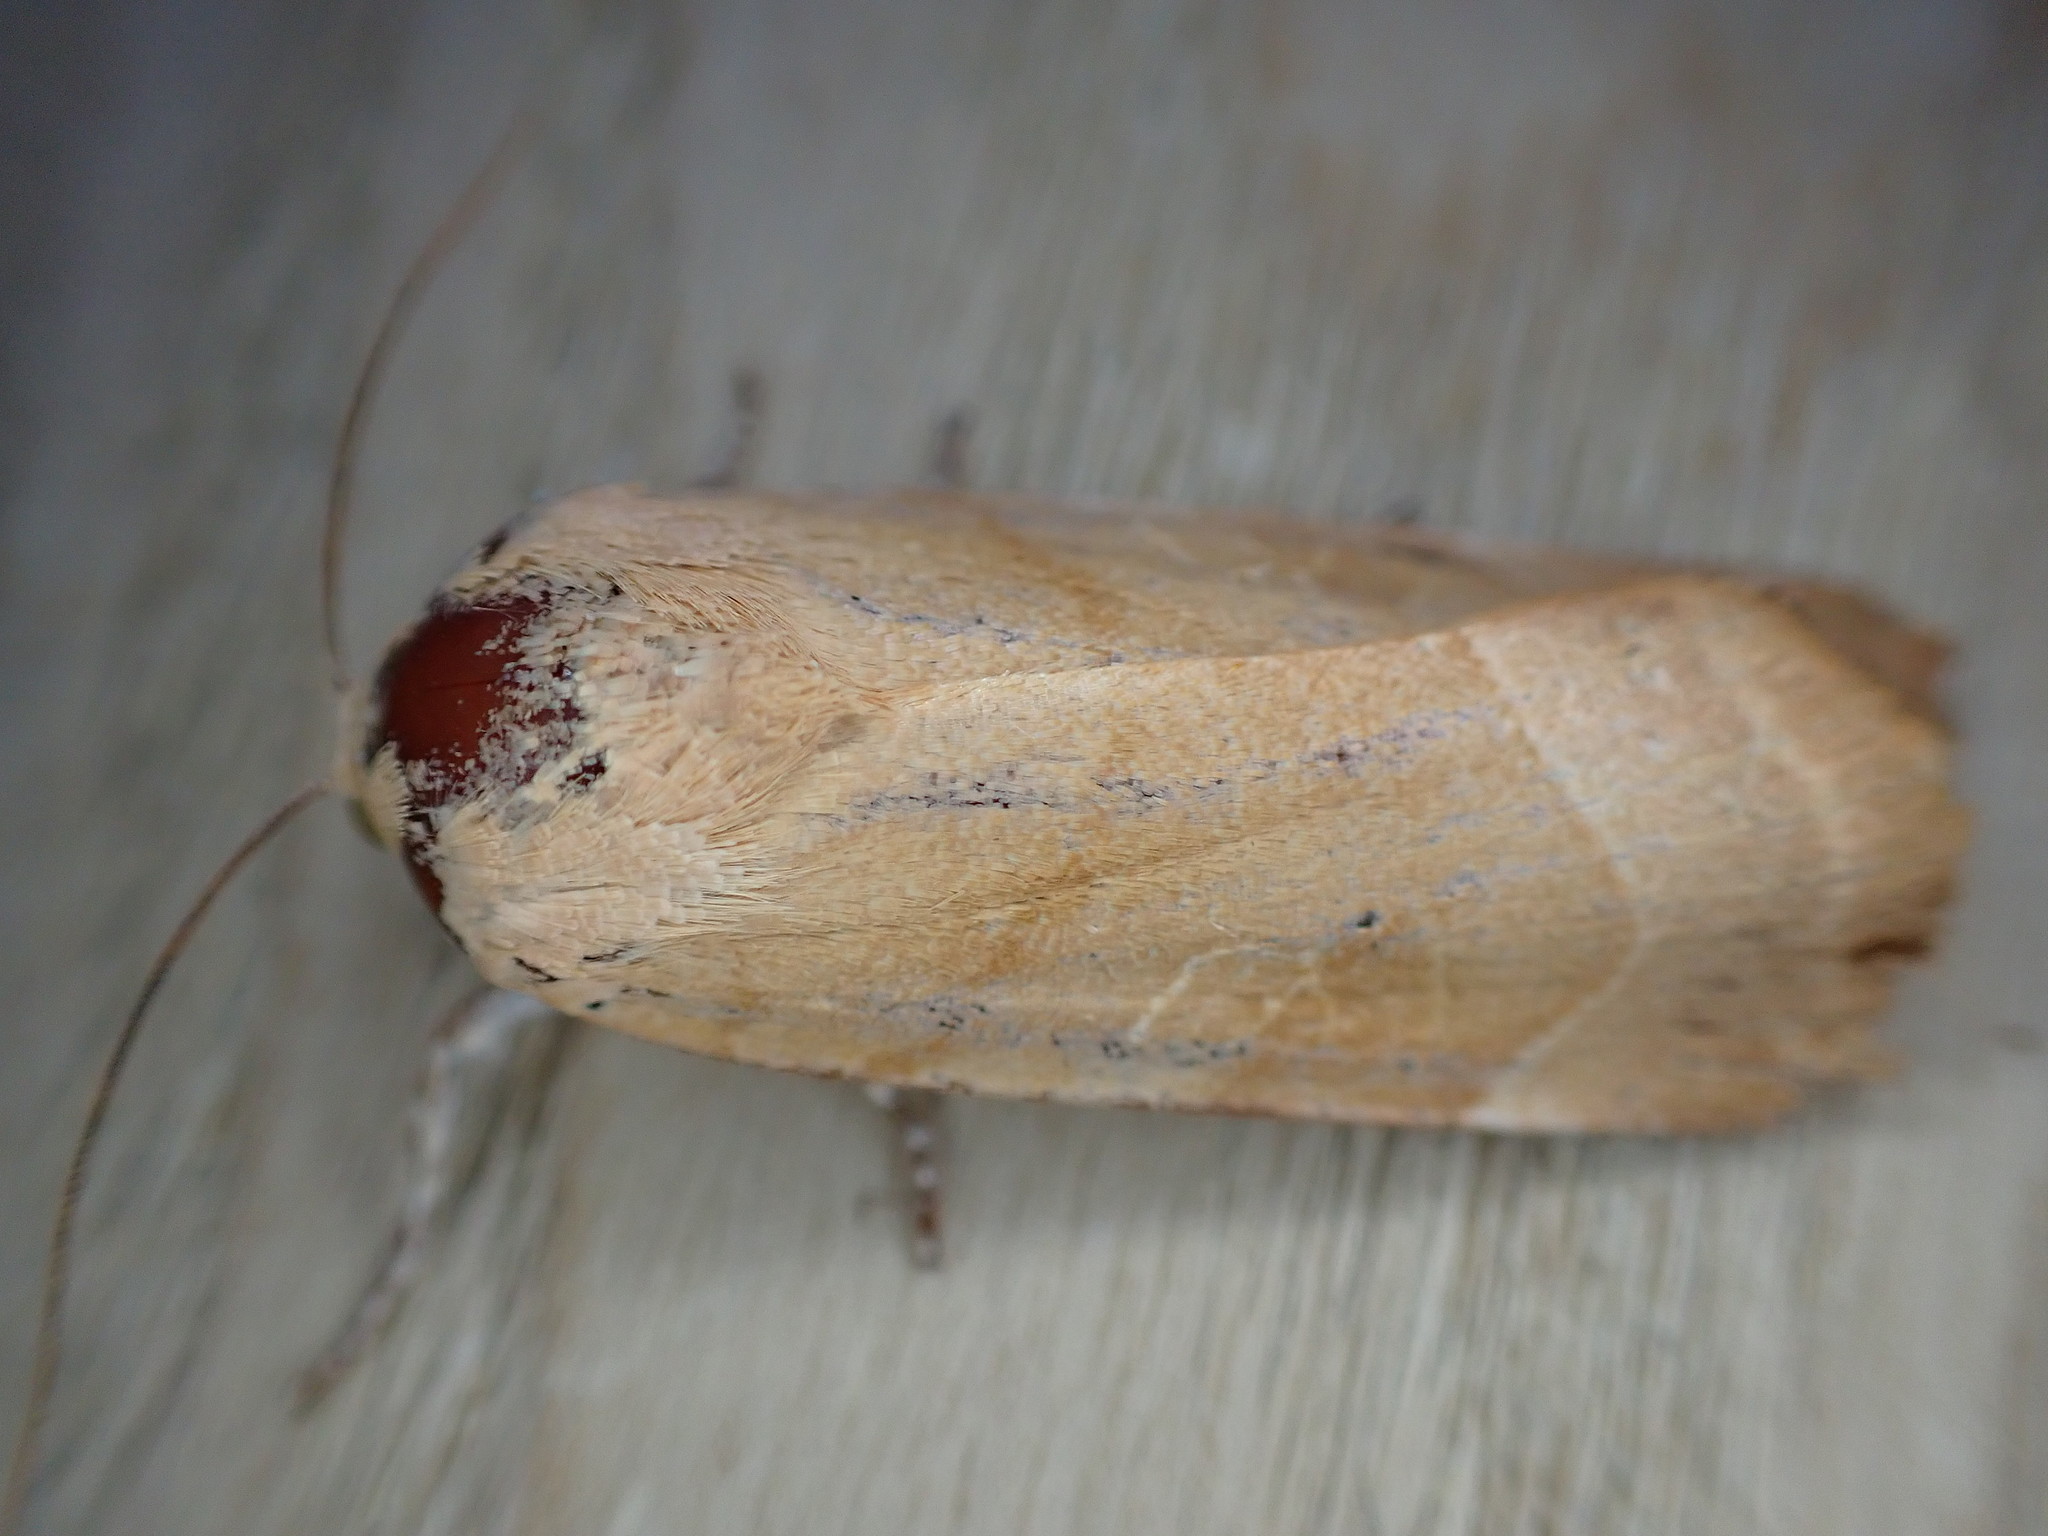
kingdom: Animalia
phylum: Arthropoda
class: Insecta
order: Lepidoptera
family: Noctuidae
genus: Noctua
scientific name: Noctua fimbriata
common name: Broad-bordered yellow underwing
